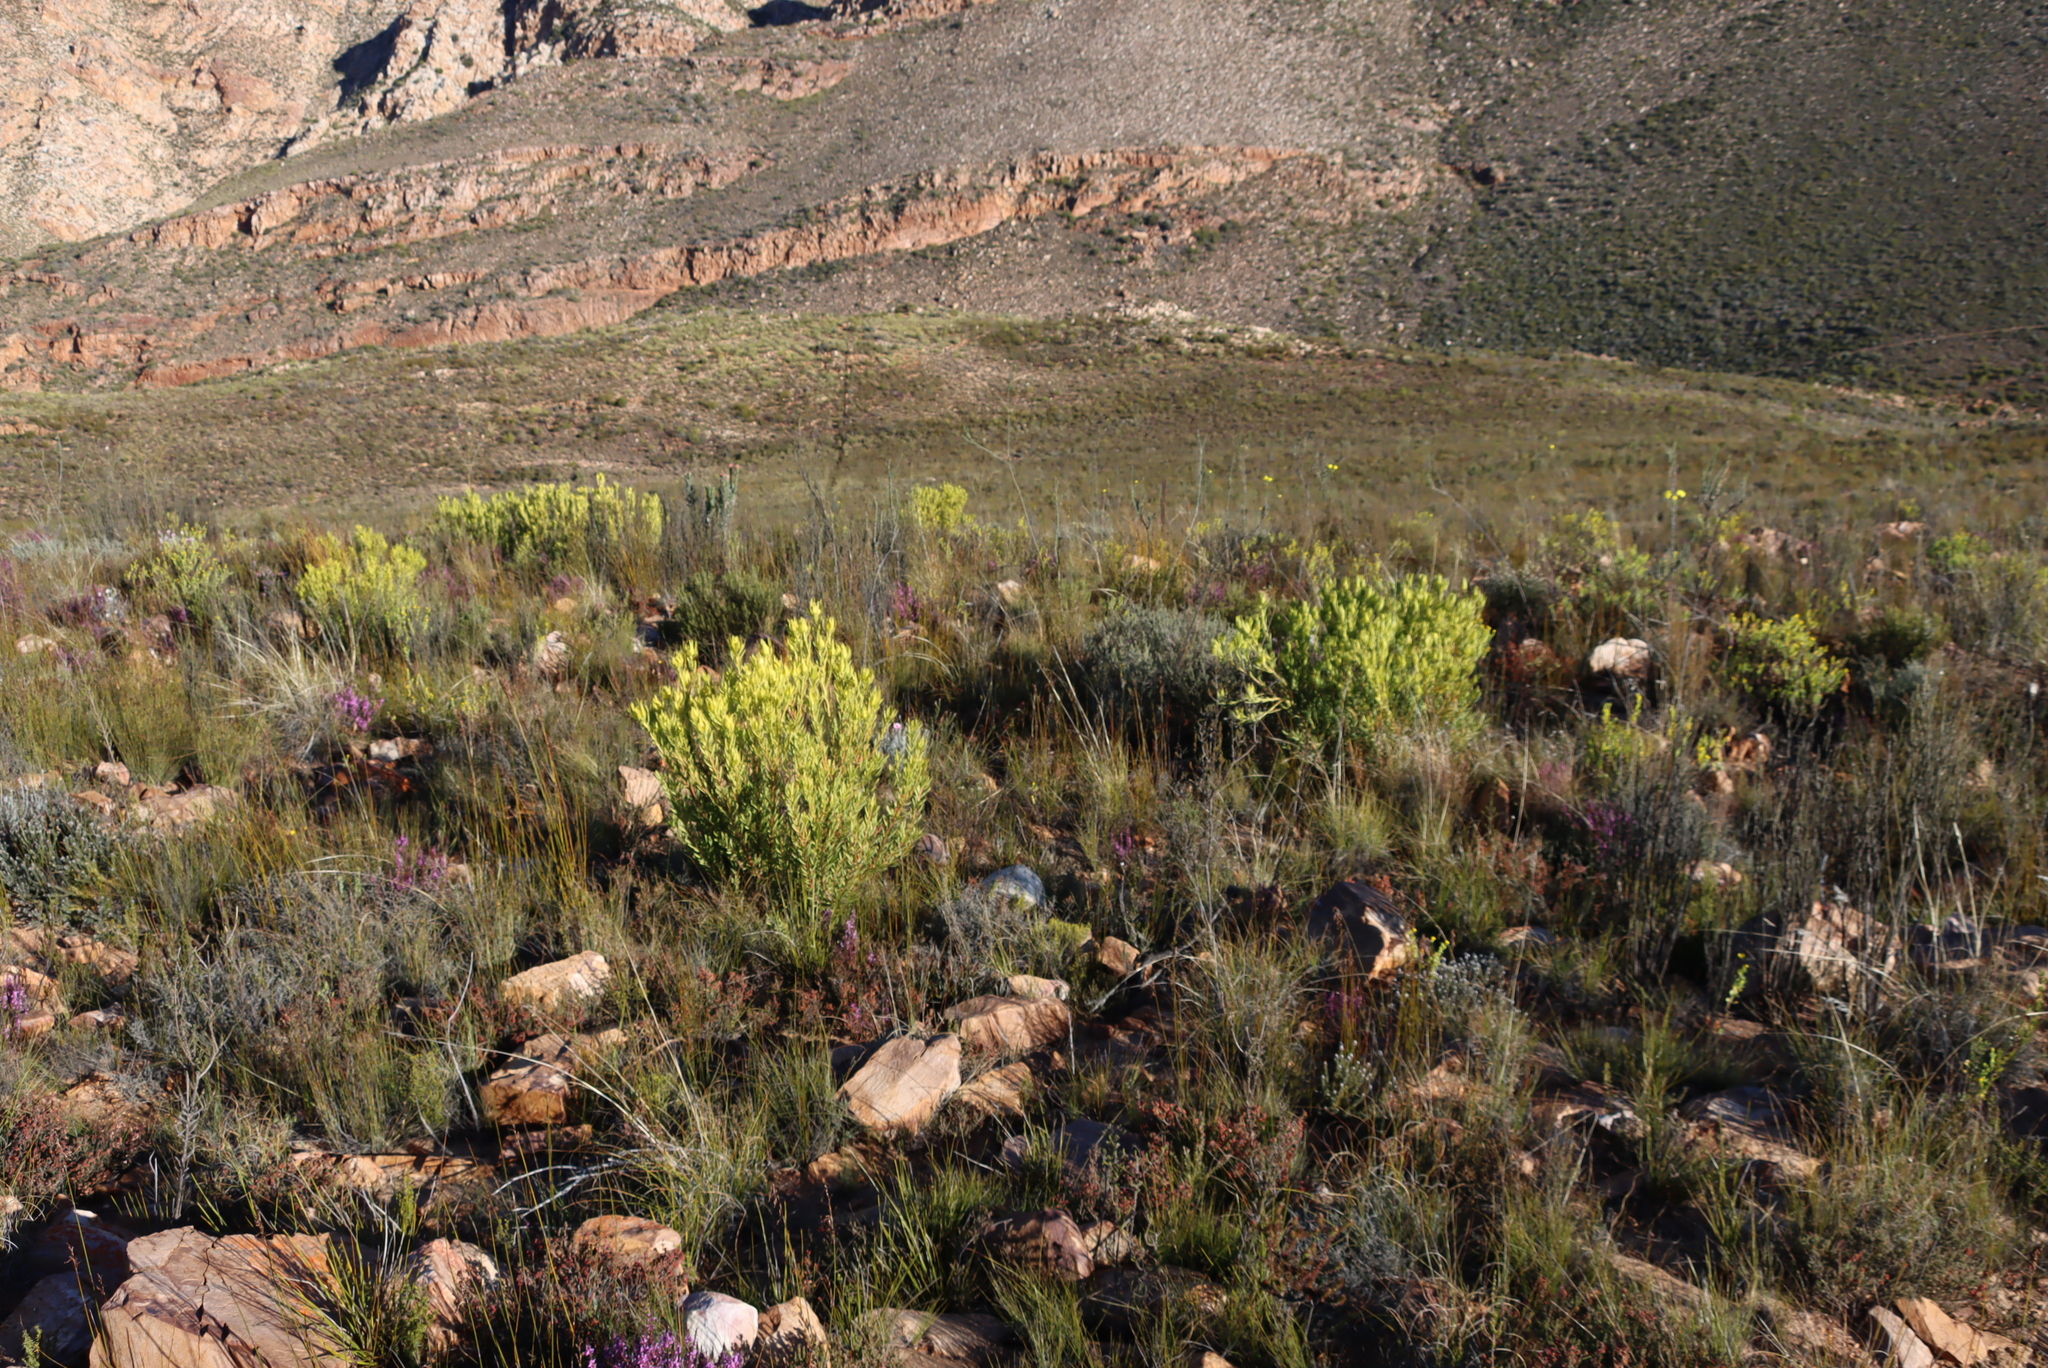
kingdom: Plantae
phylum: Tracheophyta
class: Magnoliopsida
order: Proteales
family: Proteaceae
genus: Leucadendron
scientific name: Leucadendron salignum
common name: Common sunshine conebush
